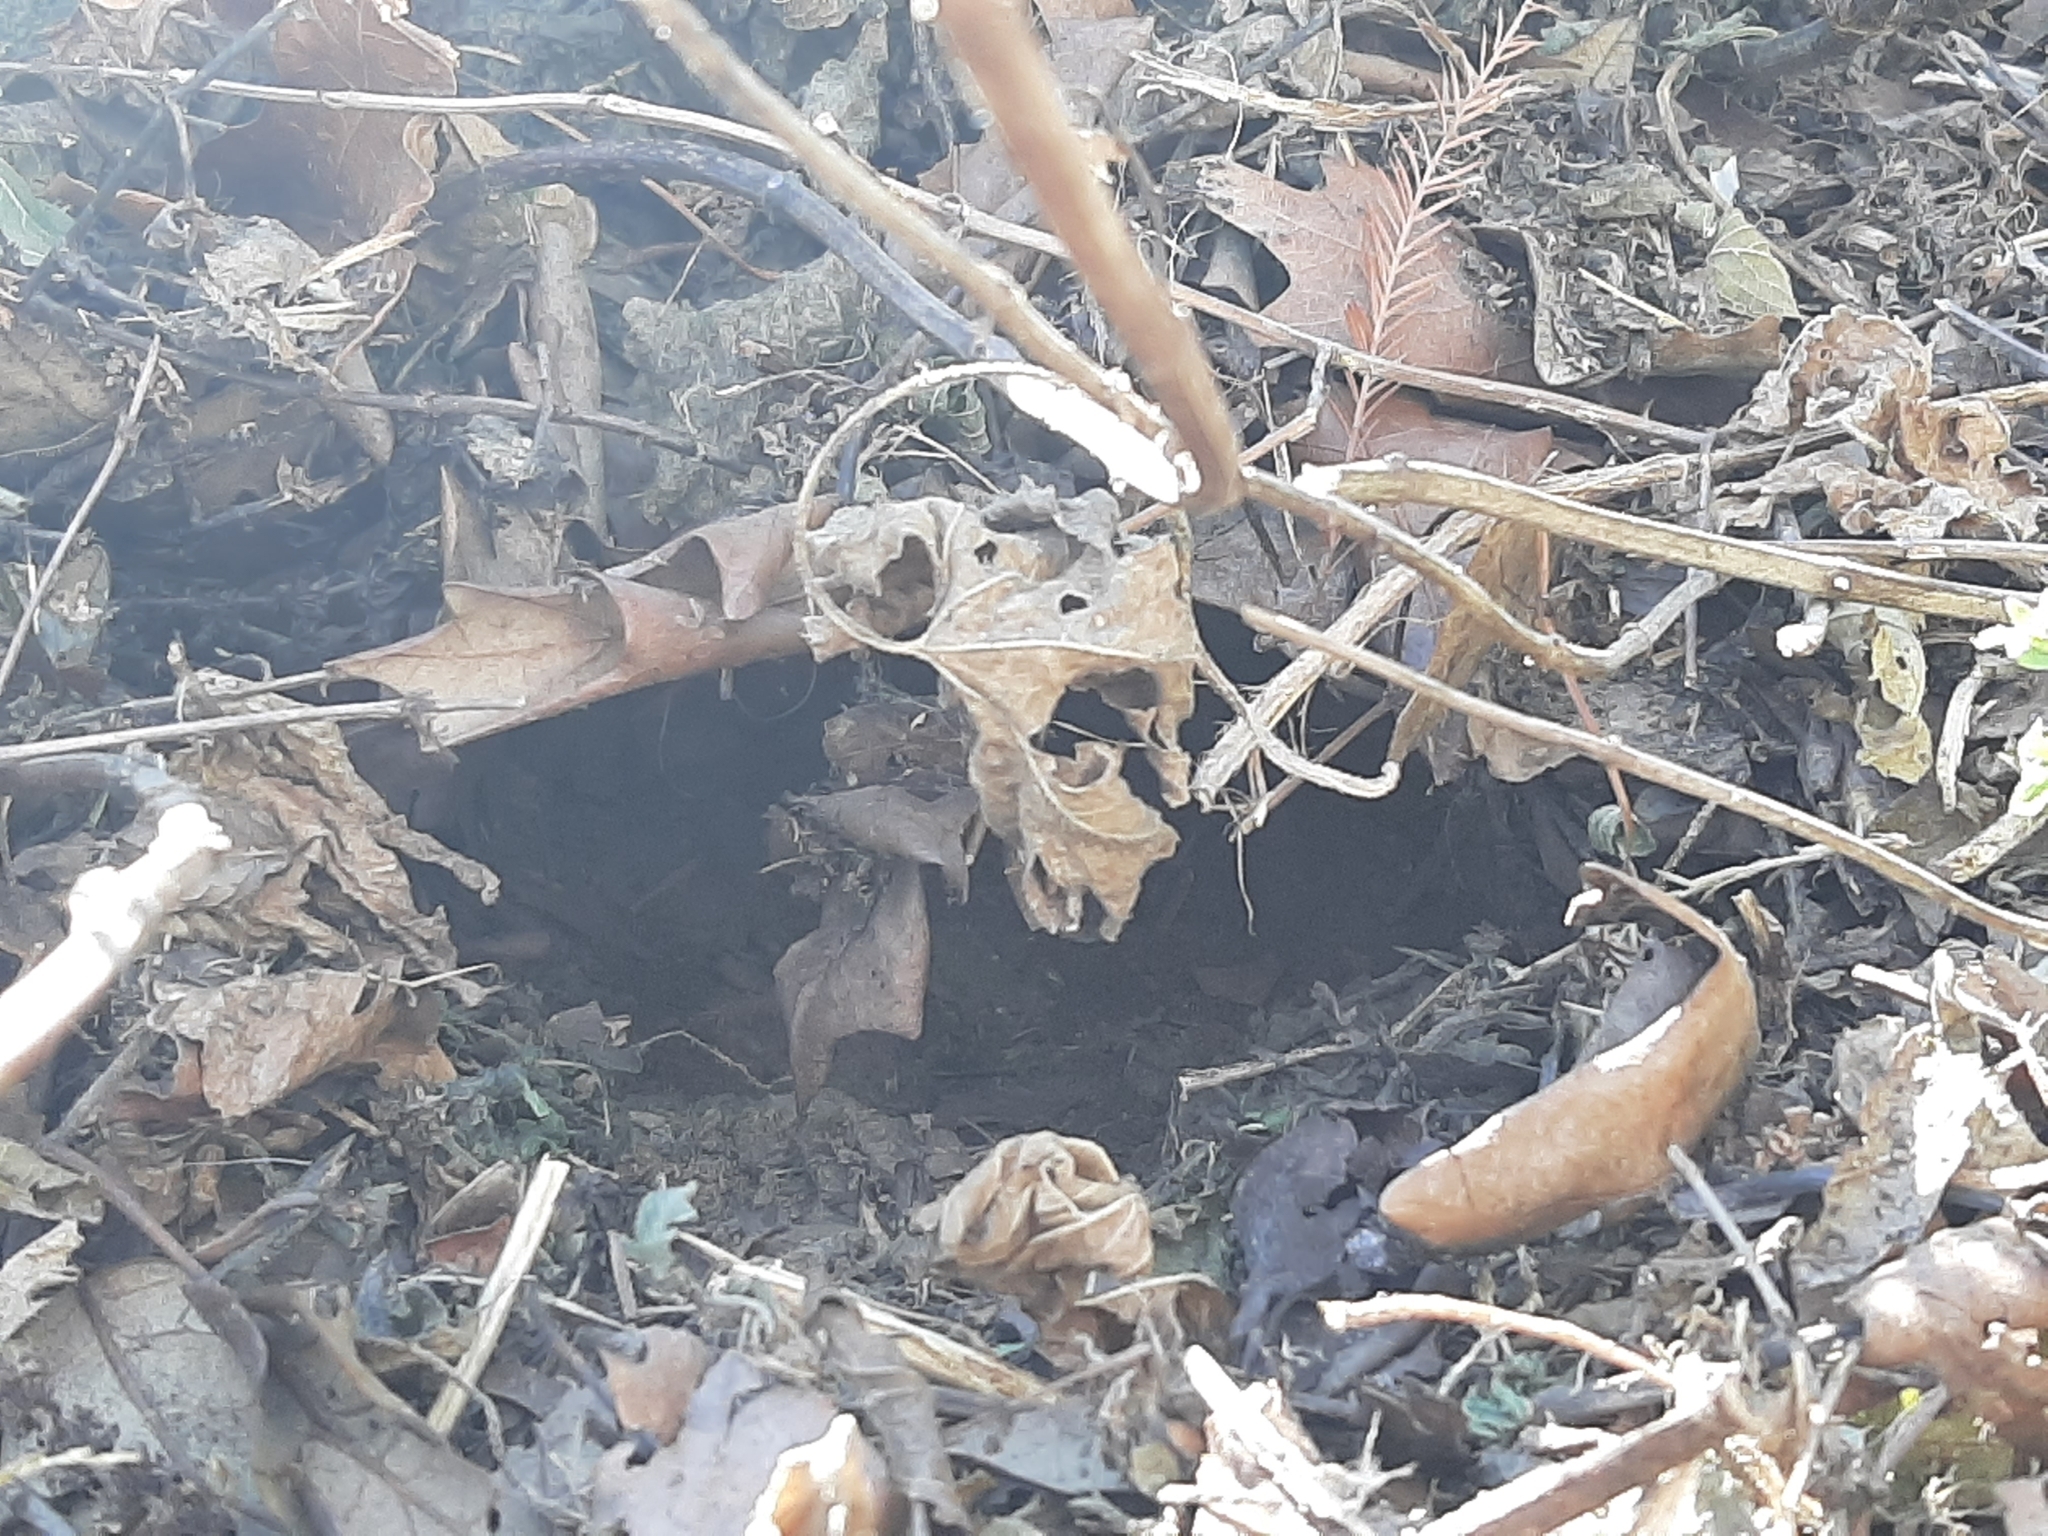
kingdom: Animalia
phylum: Chordata
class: Testudines
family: Emydidae
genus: Terrapene
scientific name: Terrapene ornata
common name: Western box turtle
